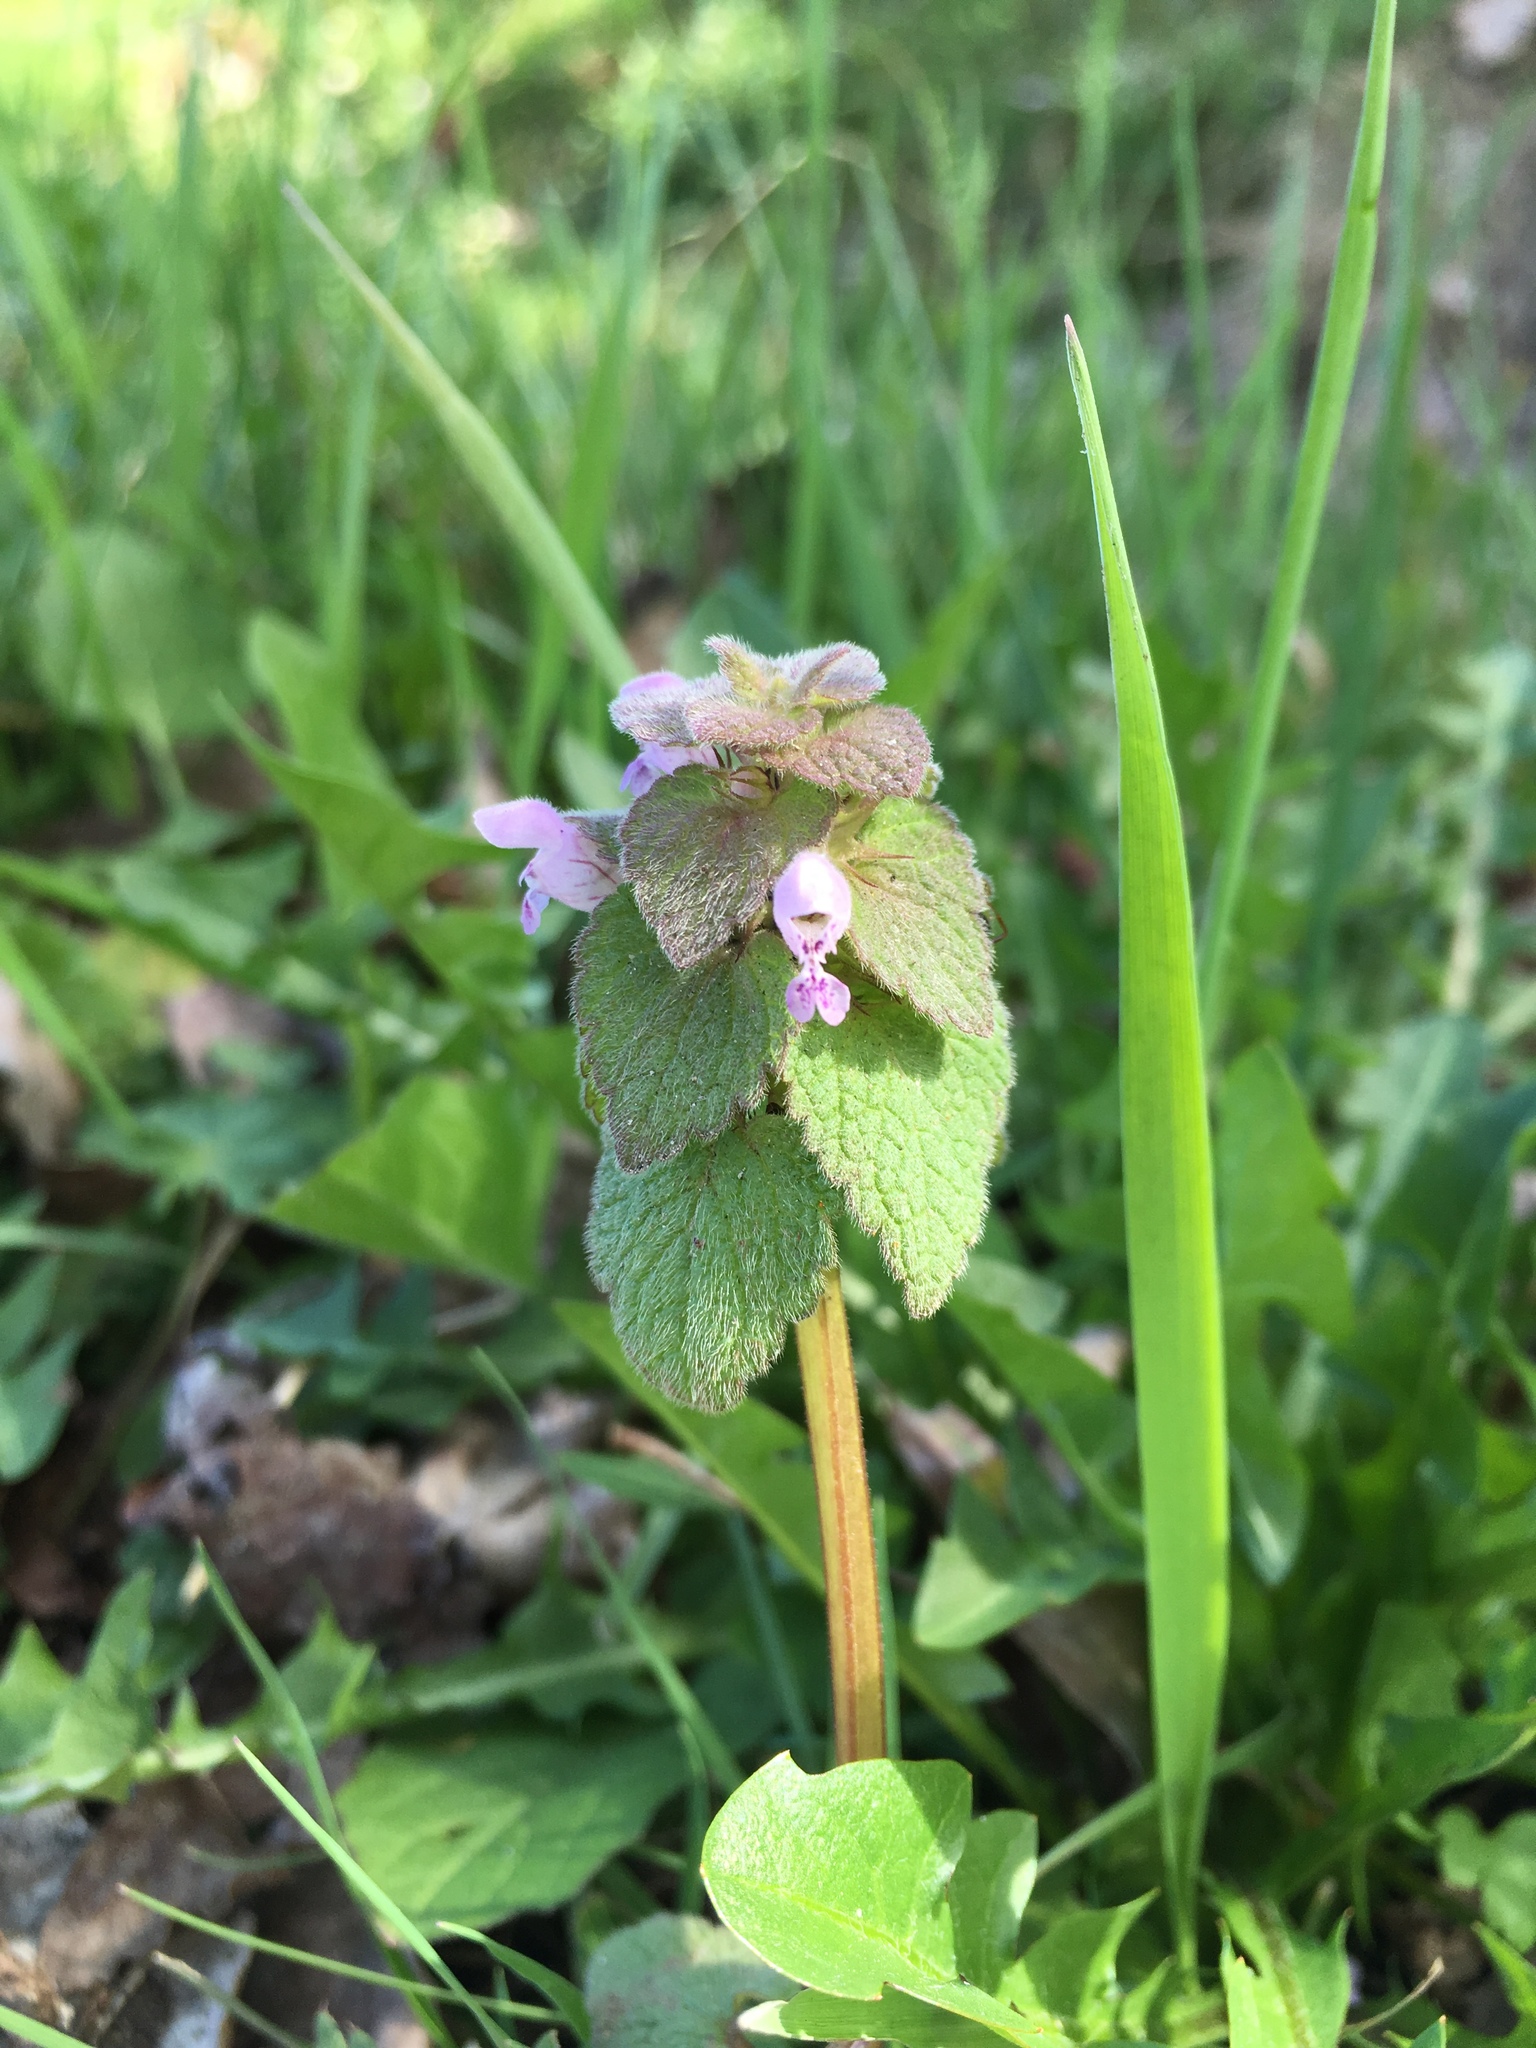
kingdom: Plantae
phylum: Tracheophyta
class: Magnoliopsida
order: Lamiales
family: Lamiaceae
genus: Lamium
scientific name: Lamium purpureum
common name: Red dead-nettle
